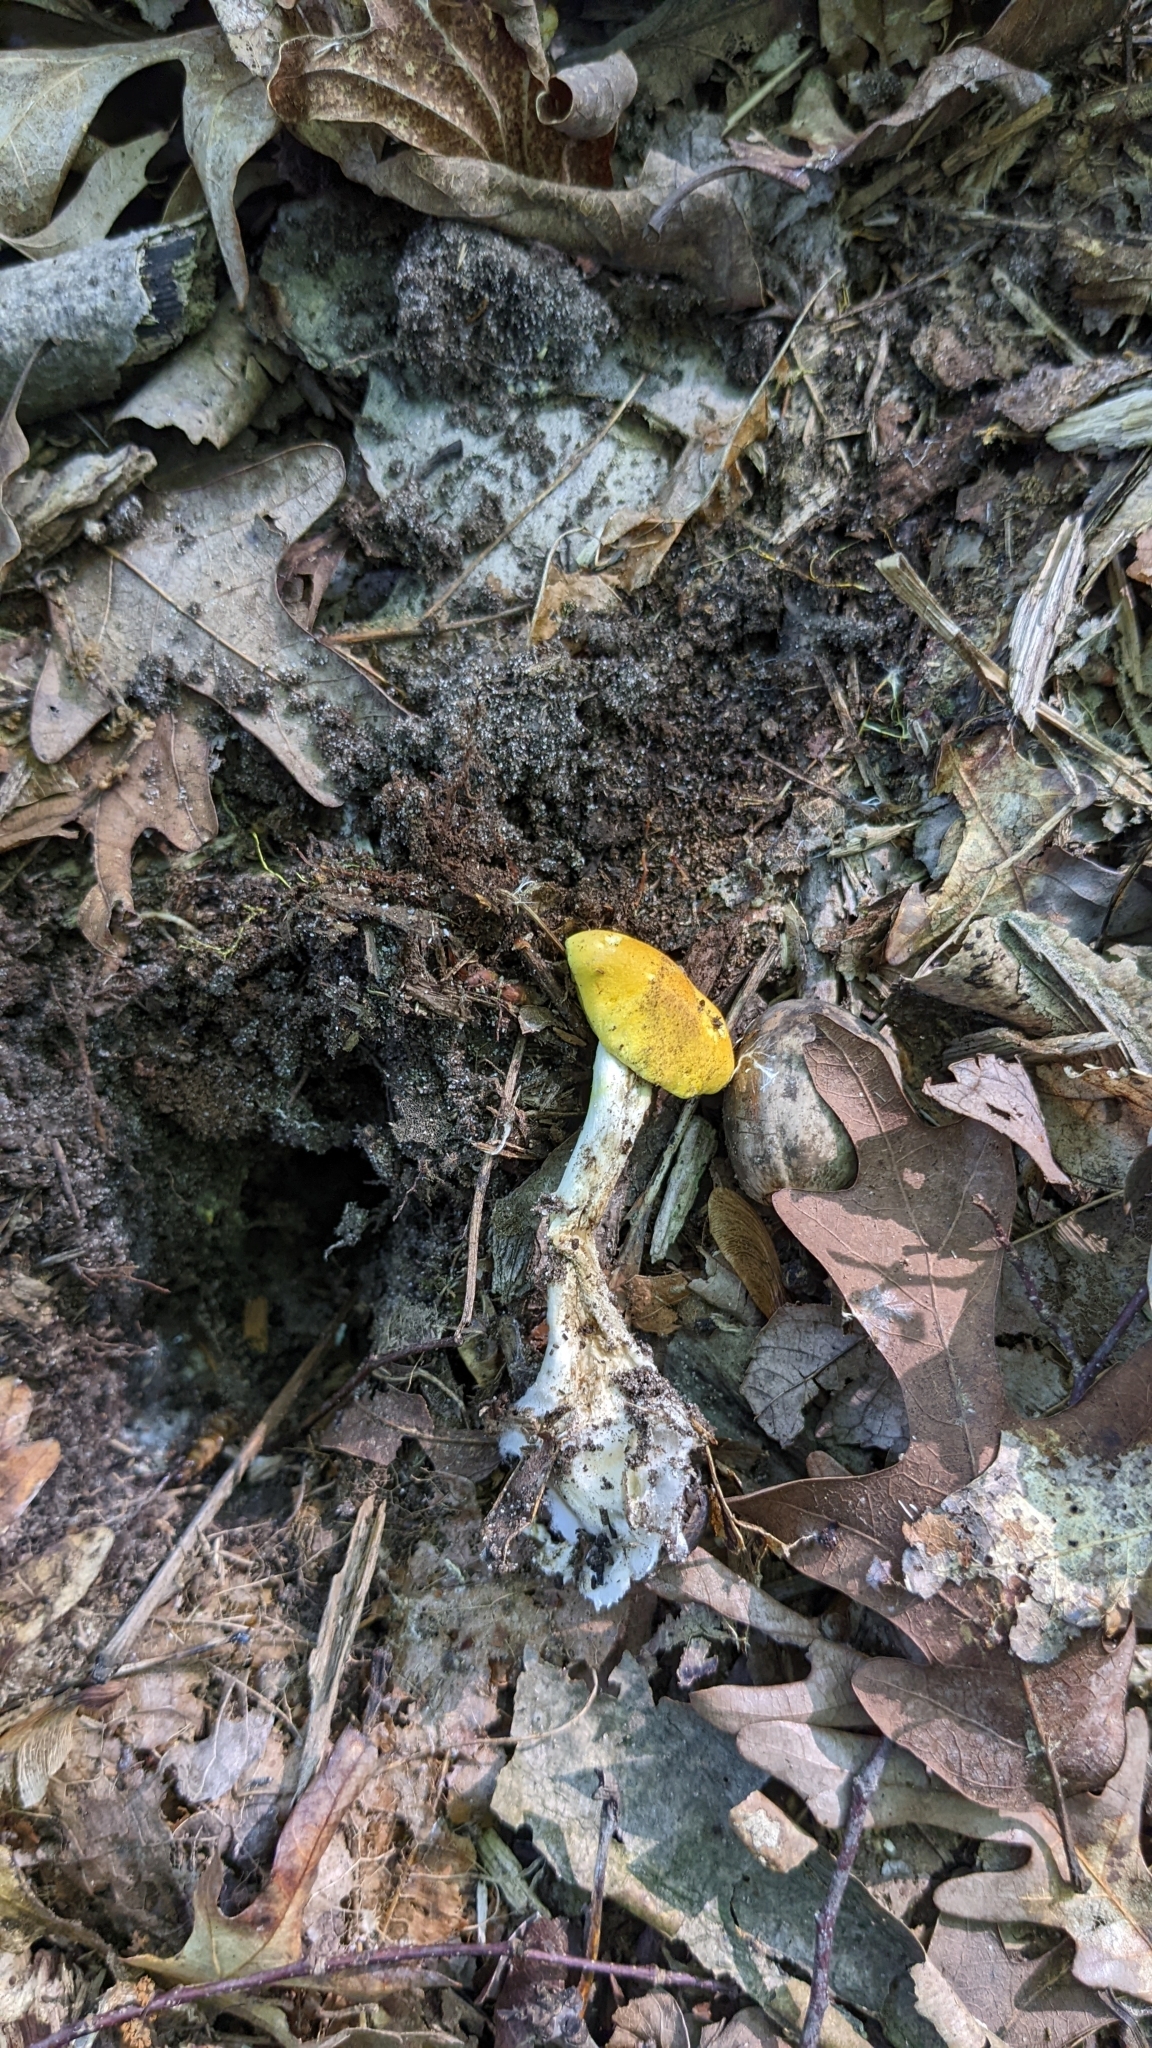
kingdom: Fungi
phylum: Basidiomycota
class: Agaricomycetes
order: Agaricales
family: Cortinariaceae
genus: Cortinarius
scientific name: Cortinarius lewisii
